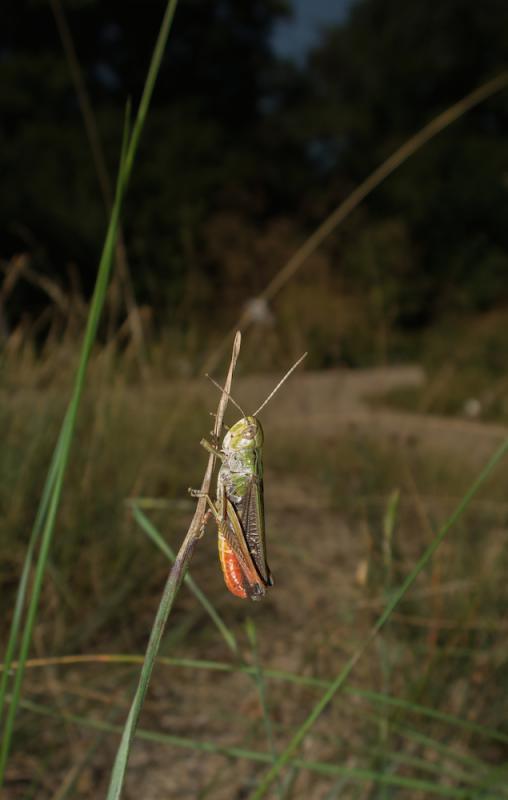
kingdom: Animalia
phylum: Arthropoda
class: Insecta
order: Orthoptera
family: Acrididae
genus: Stenobothrus
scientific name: Stenobothrus lineatus
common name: Stripe-winged grasshopper
